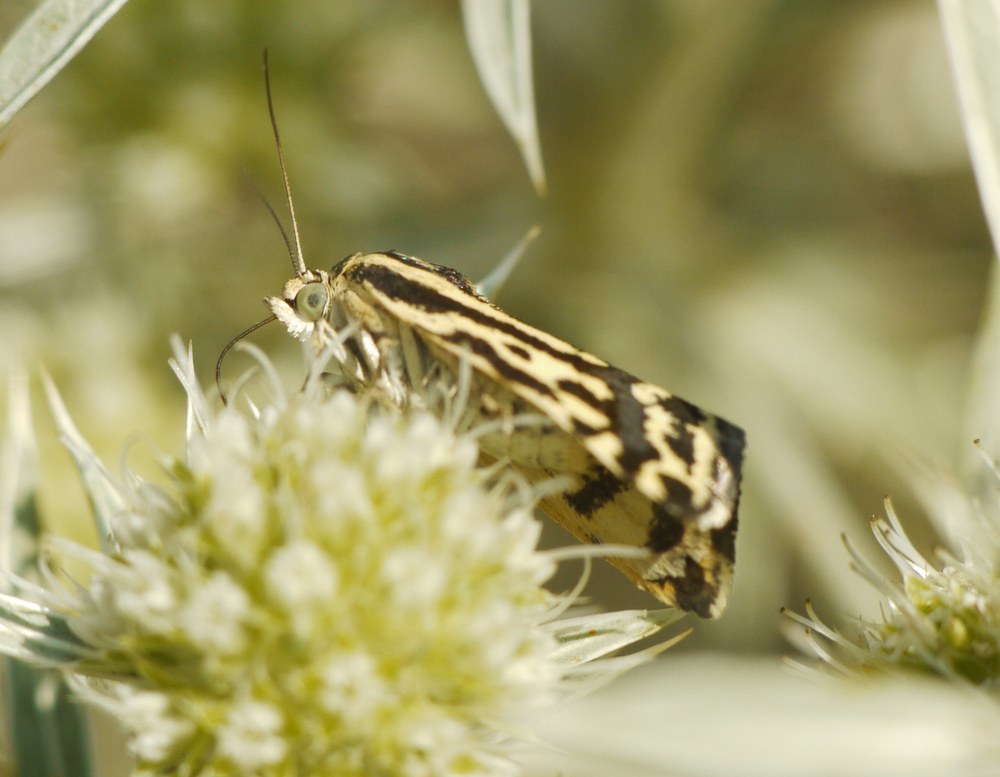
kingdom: Animalia
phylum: Arthropoda
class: Insecta
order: Lepidoptera
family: Noctuidae
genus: Acontia
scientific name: Acontia trabealis
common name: Spotted sulphur
